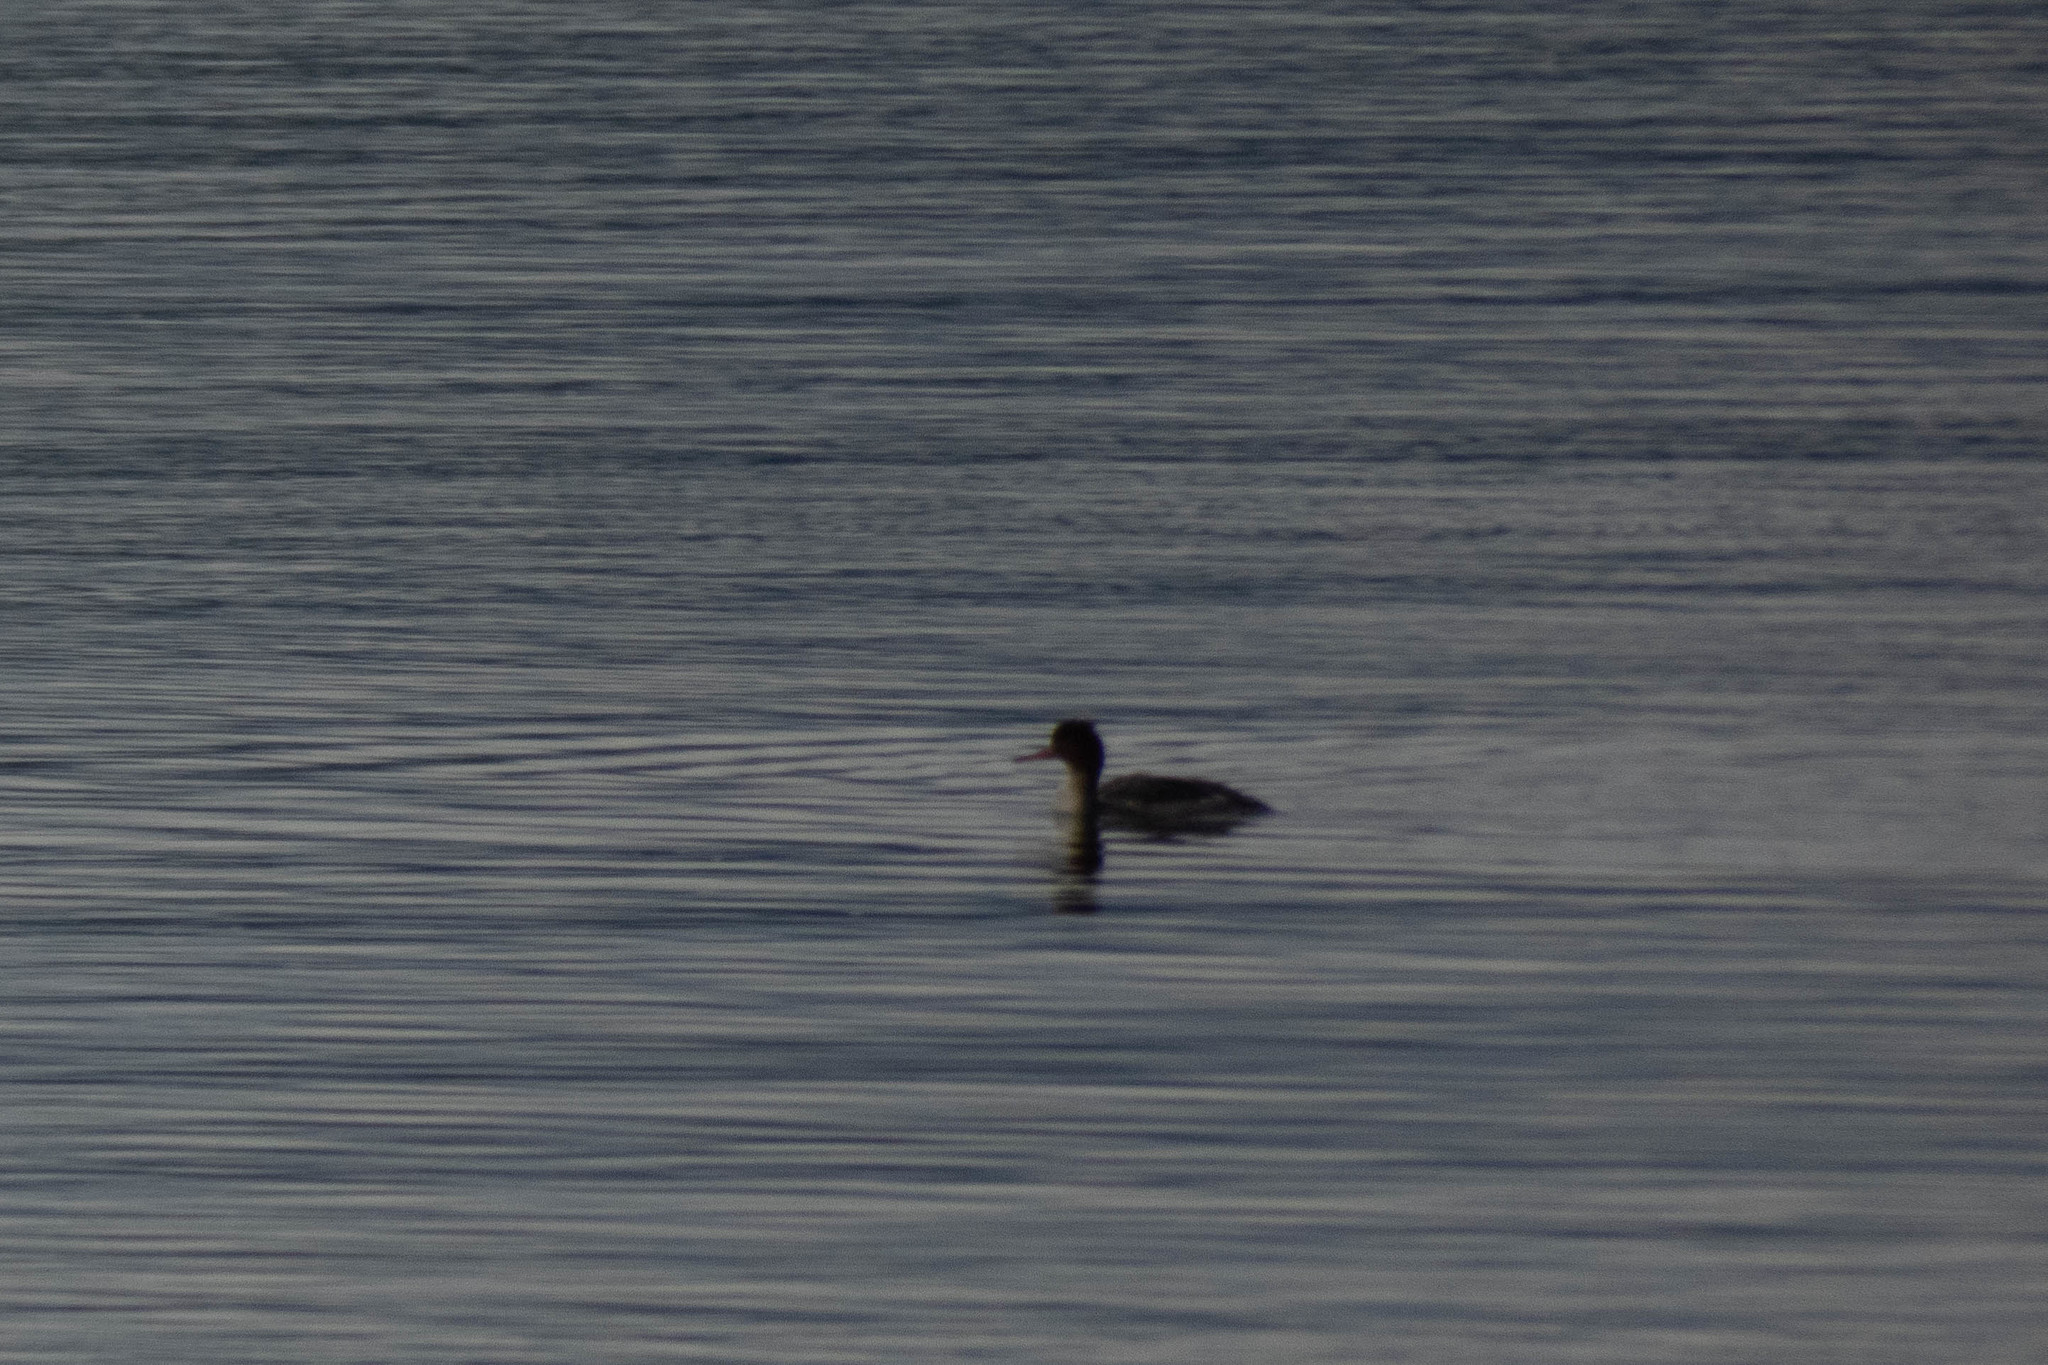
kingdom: Animalia
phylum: Chordata
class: Aves
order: Anseriformes
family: Anatidae
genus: Mergus
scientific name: Mergus serrator
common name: Red-breasted merganser
